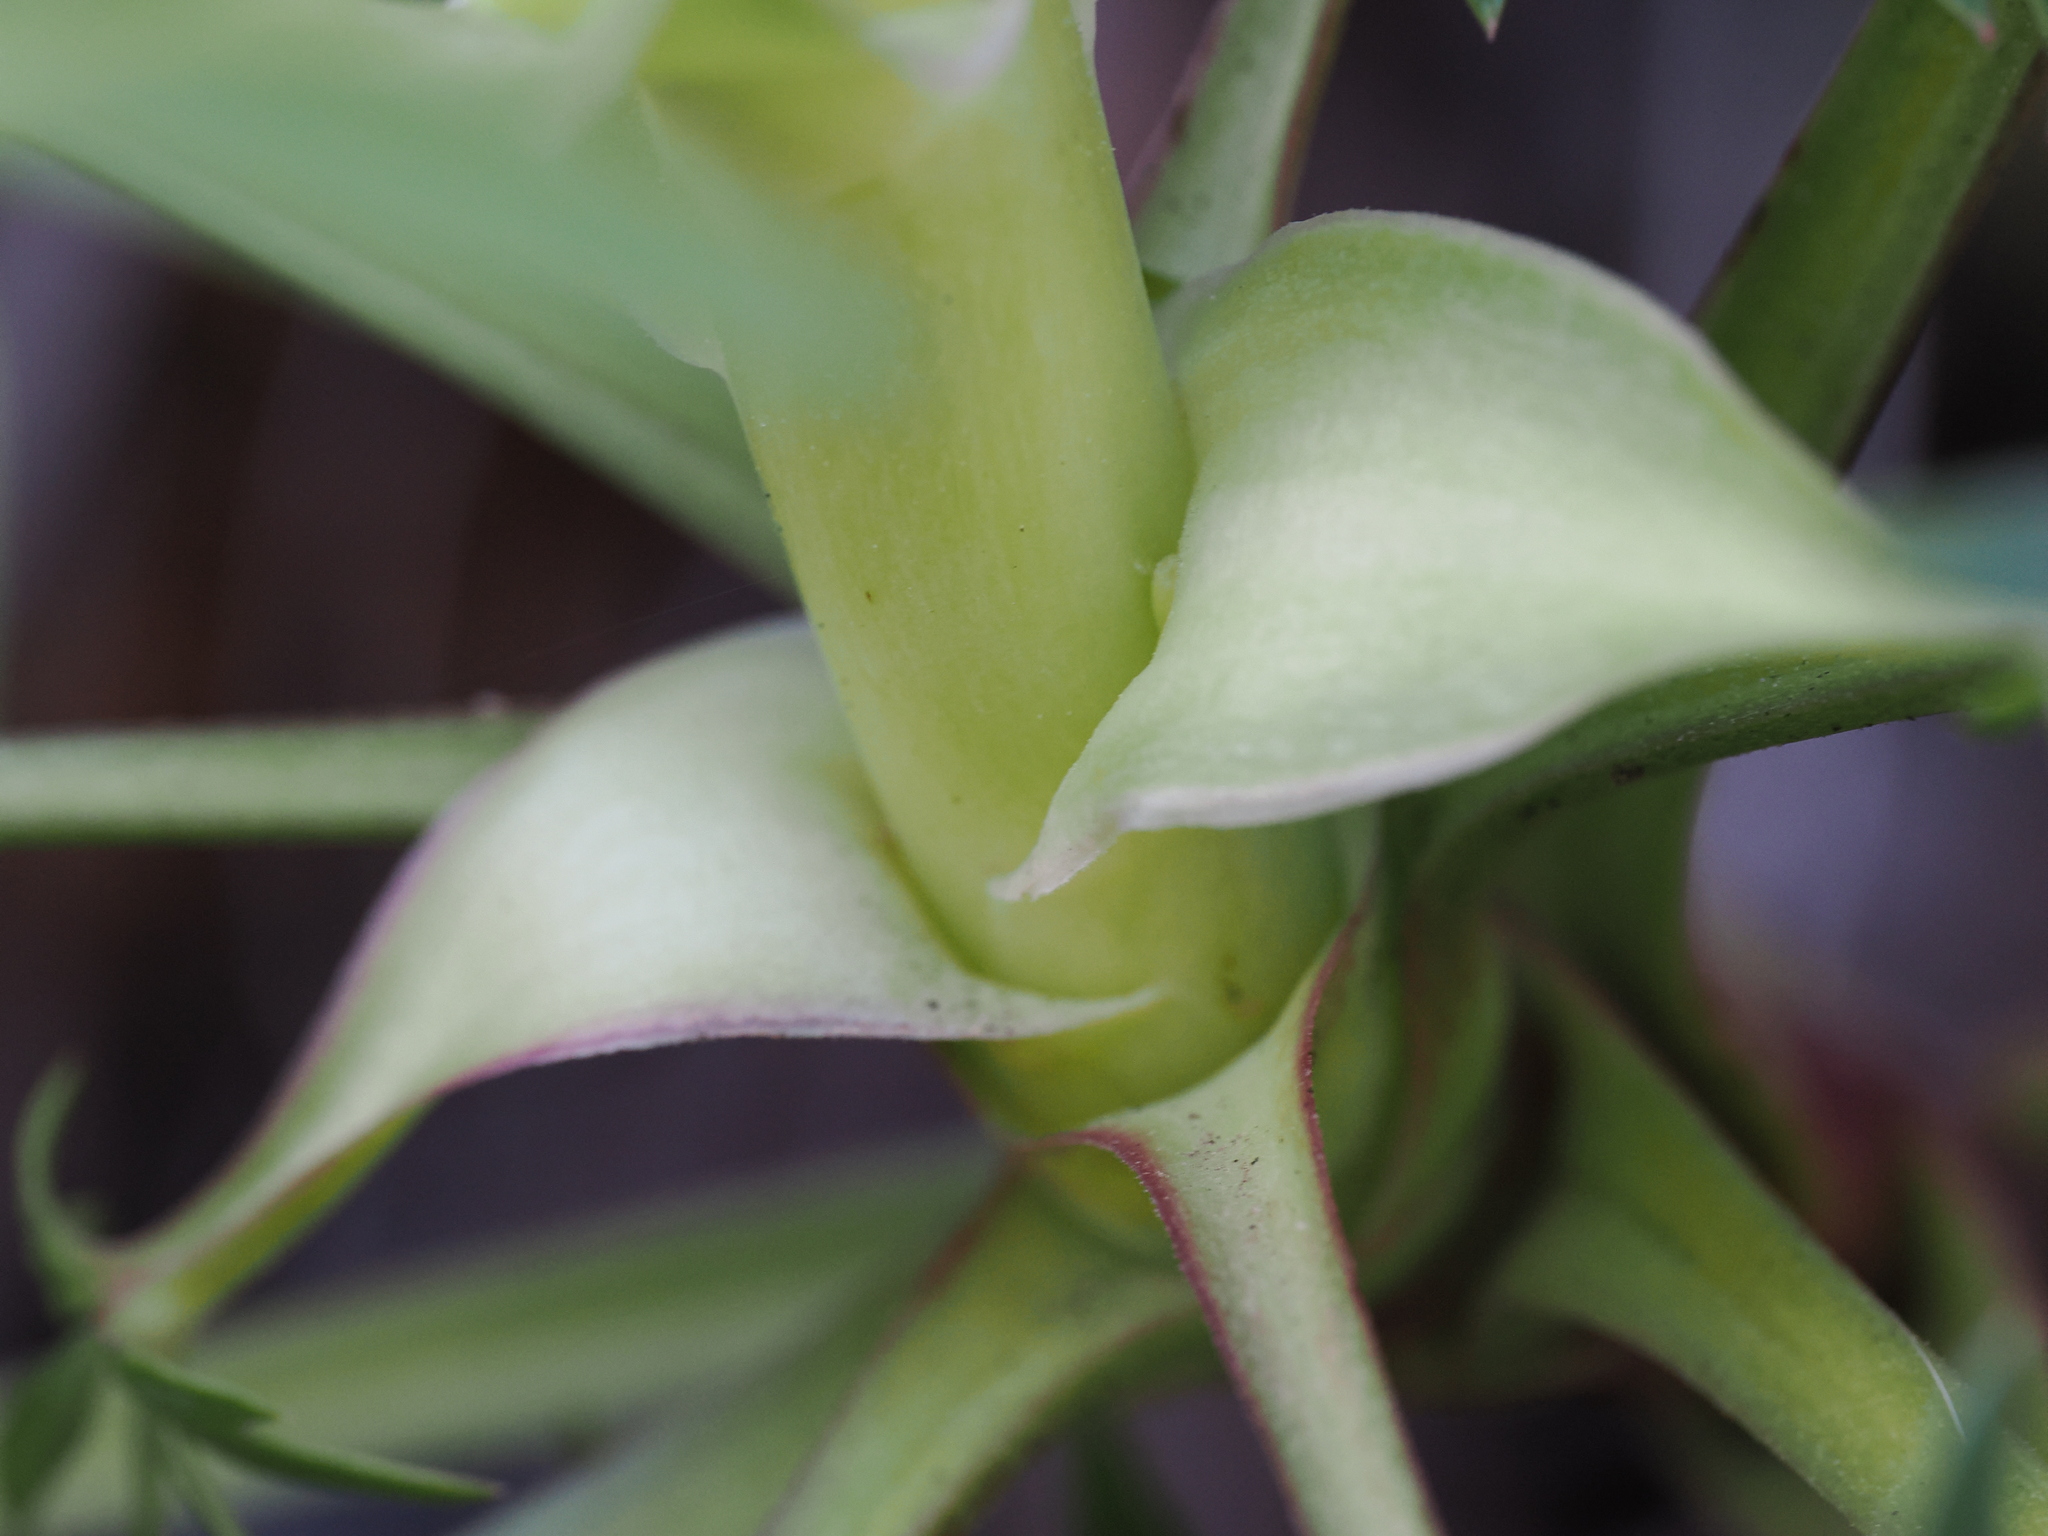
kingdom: Plantae
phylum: Tracheophyta
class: Magnoliopsida
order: Ranunculales
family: Ranunculaceae
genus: Helleborus
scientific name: Helleborus foetidus
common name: Stinking hellebore
